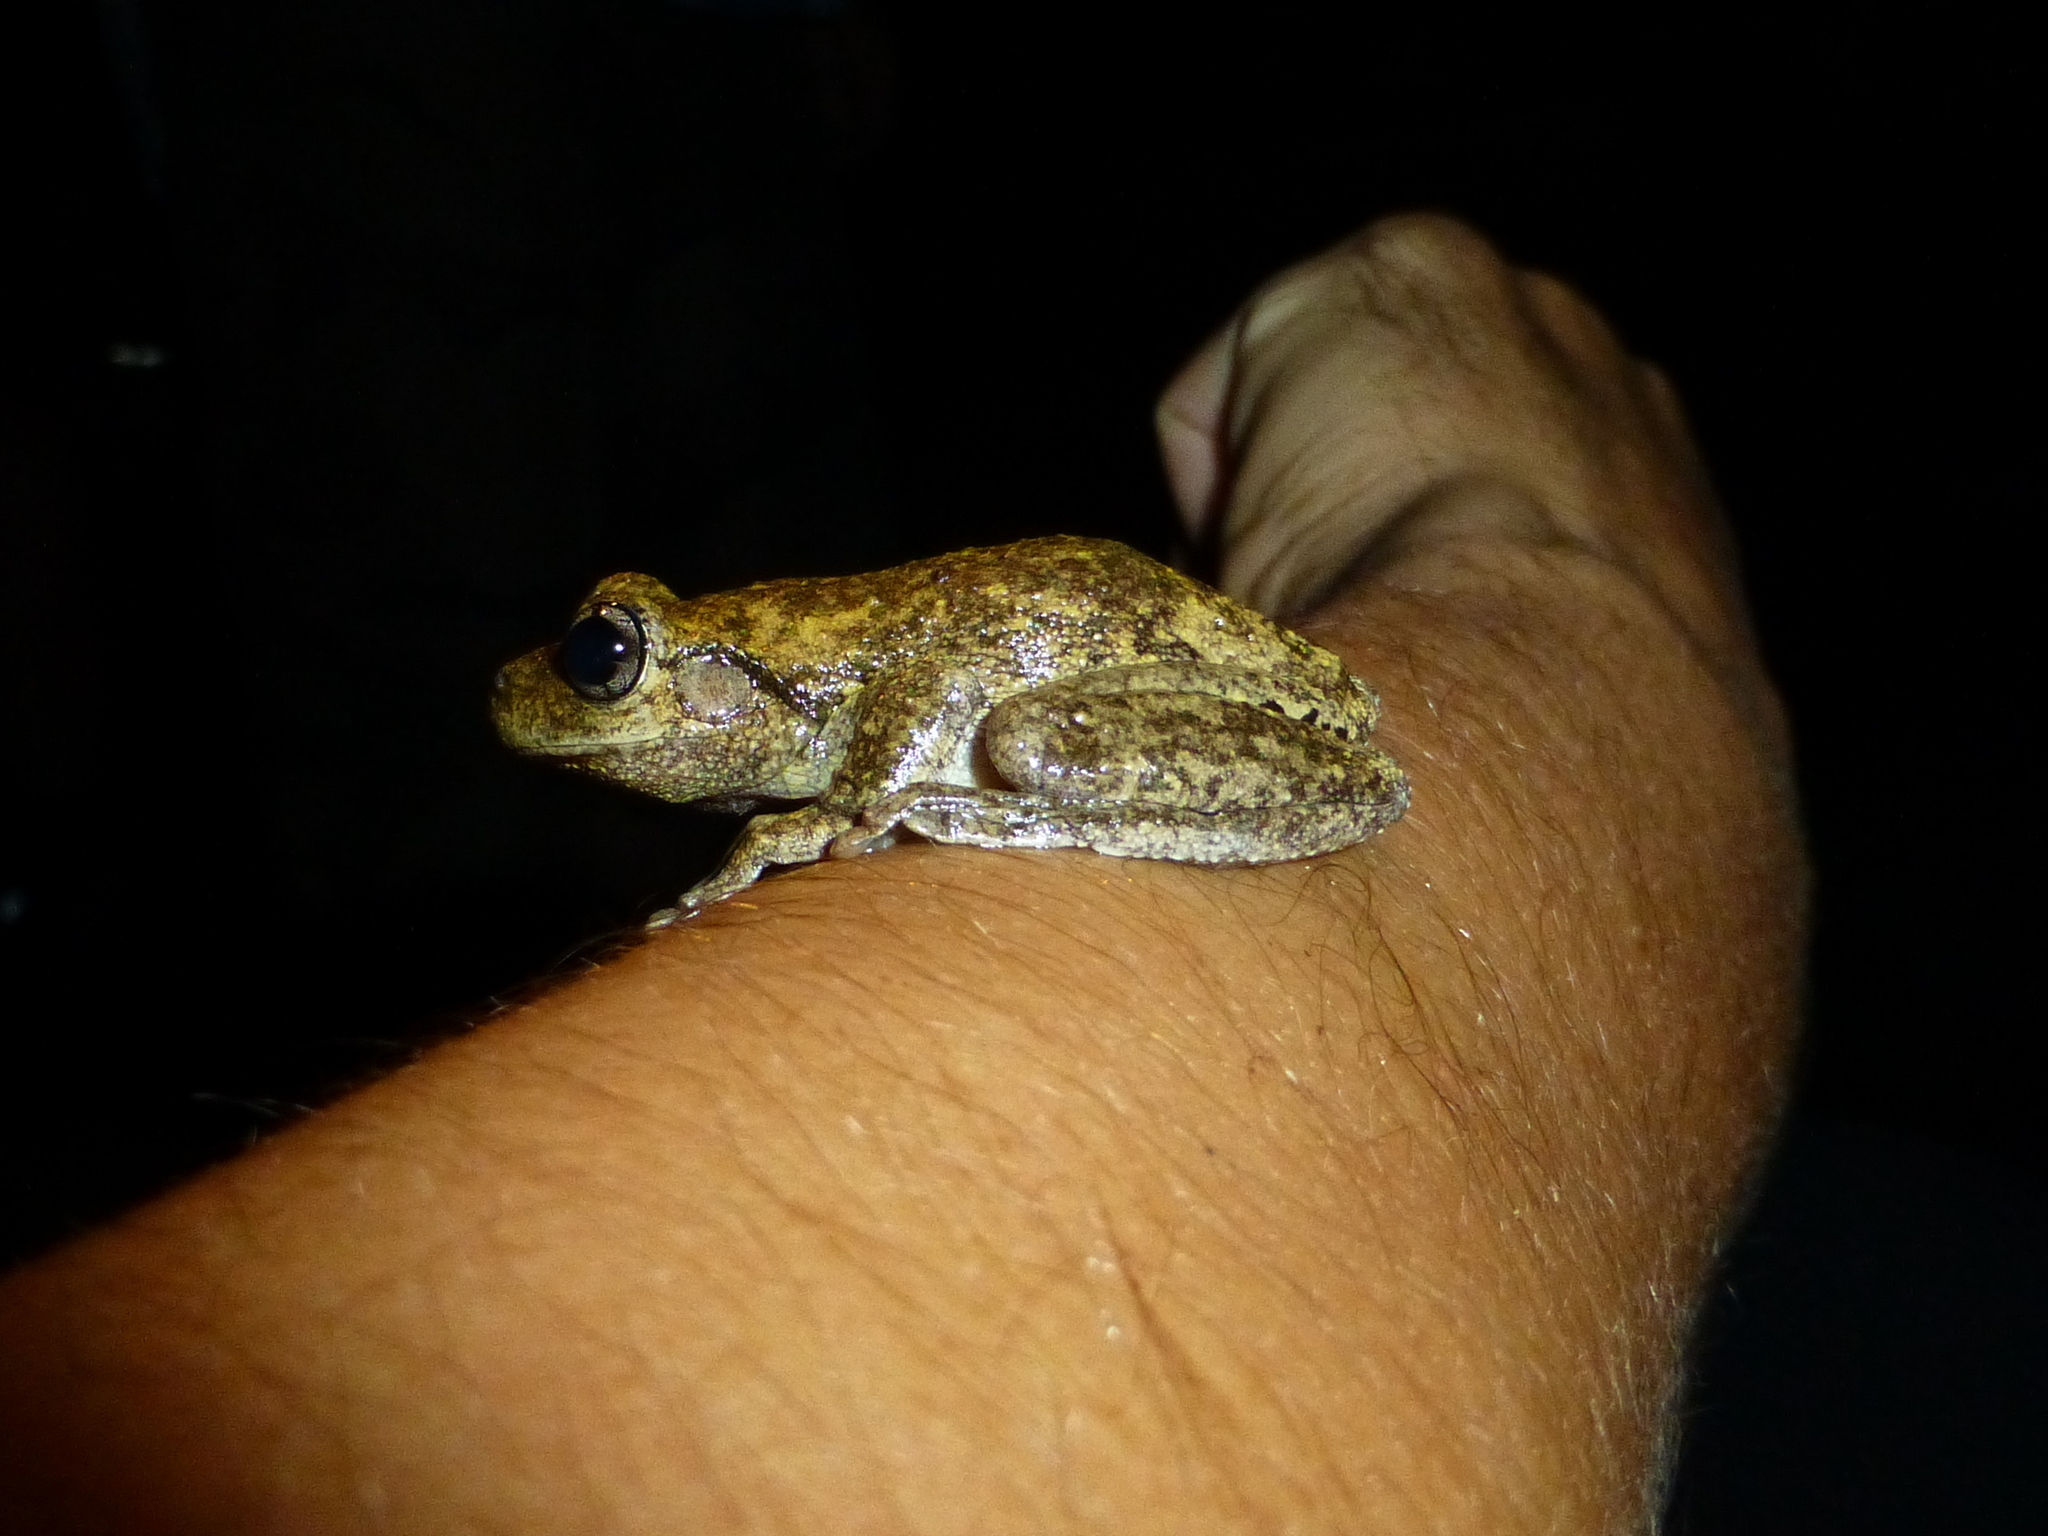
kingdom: Animalia
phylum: Chordata
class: Amphibia
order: Anura
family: Pelodryadidae
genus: Litoria
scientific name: Litoria peronii
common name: Emerald spotted treefrog
